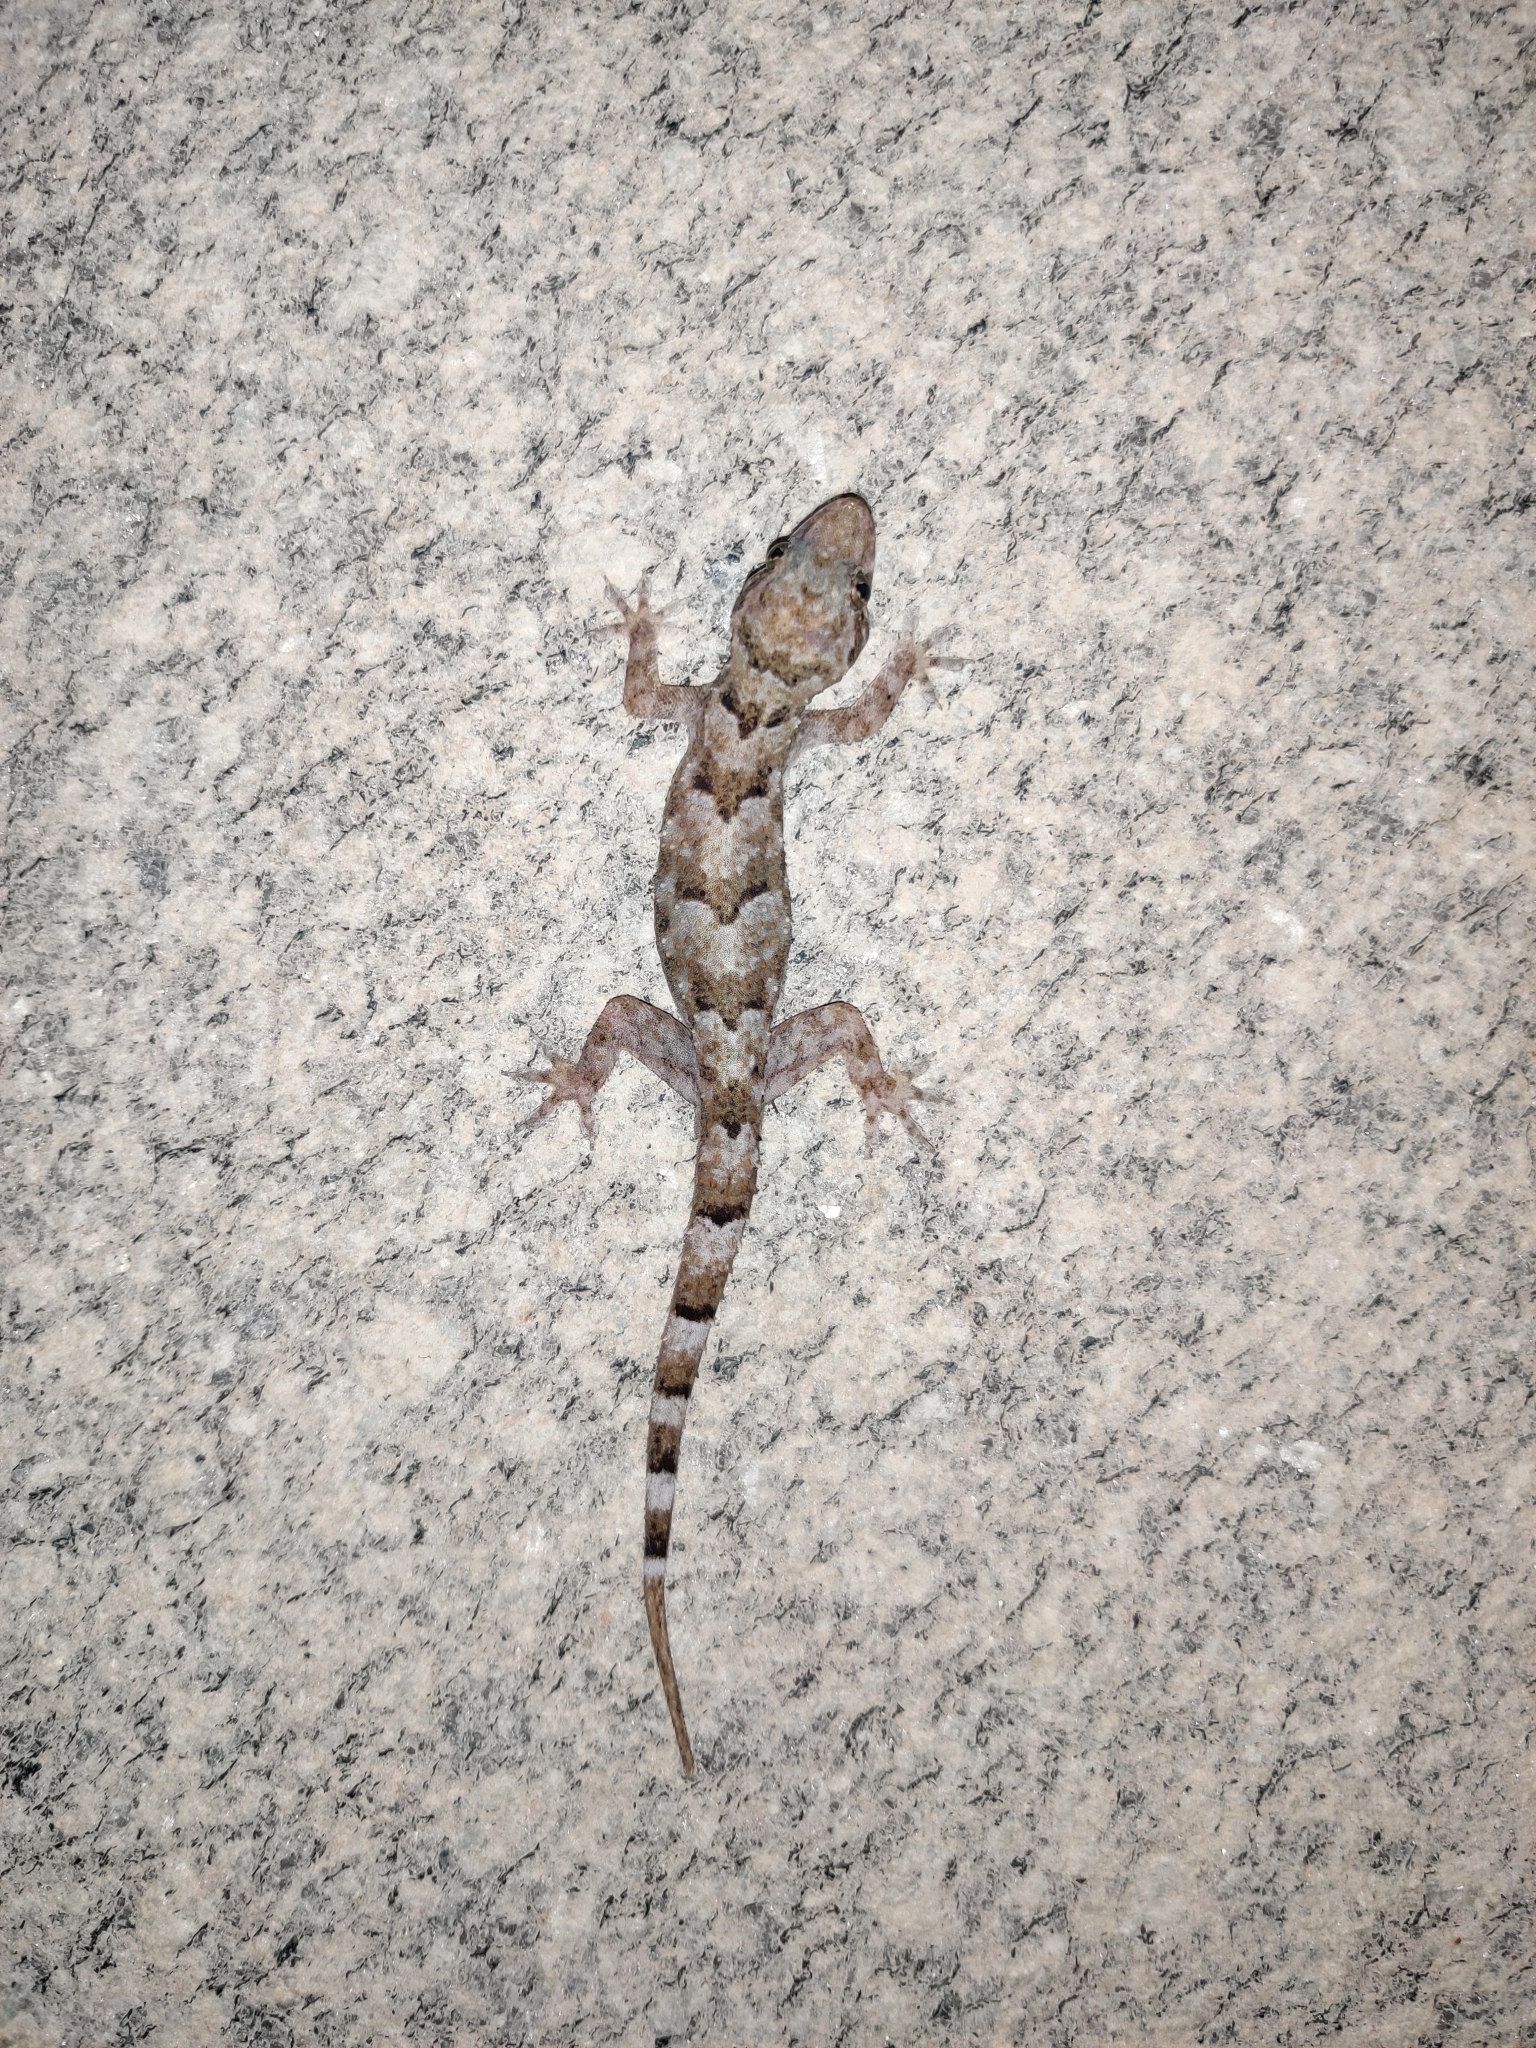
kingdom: Animalia
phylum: Chordata
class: Squamata
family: Gekkonidae
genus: Hemidactylus
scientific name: Hemidactylus mabouia
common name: House gecko
